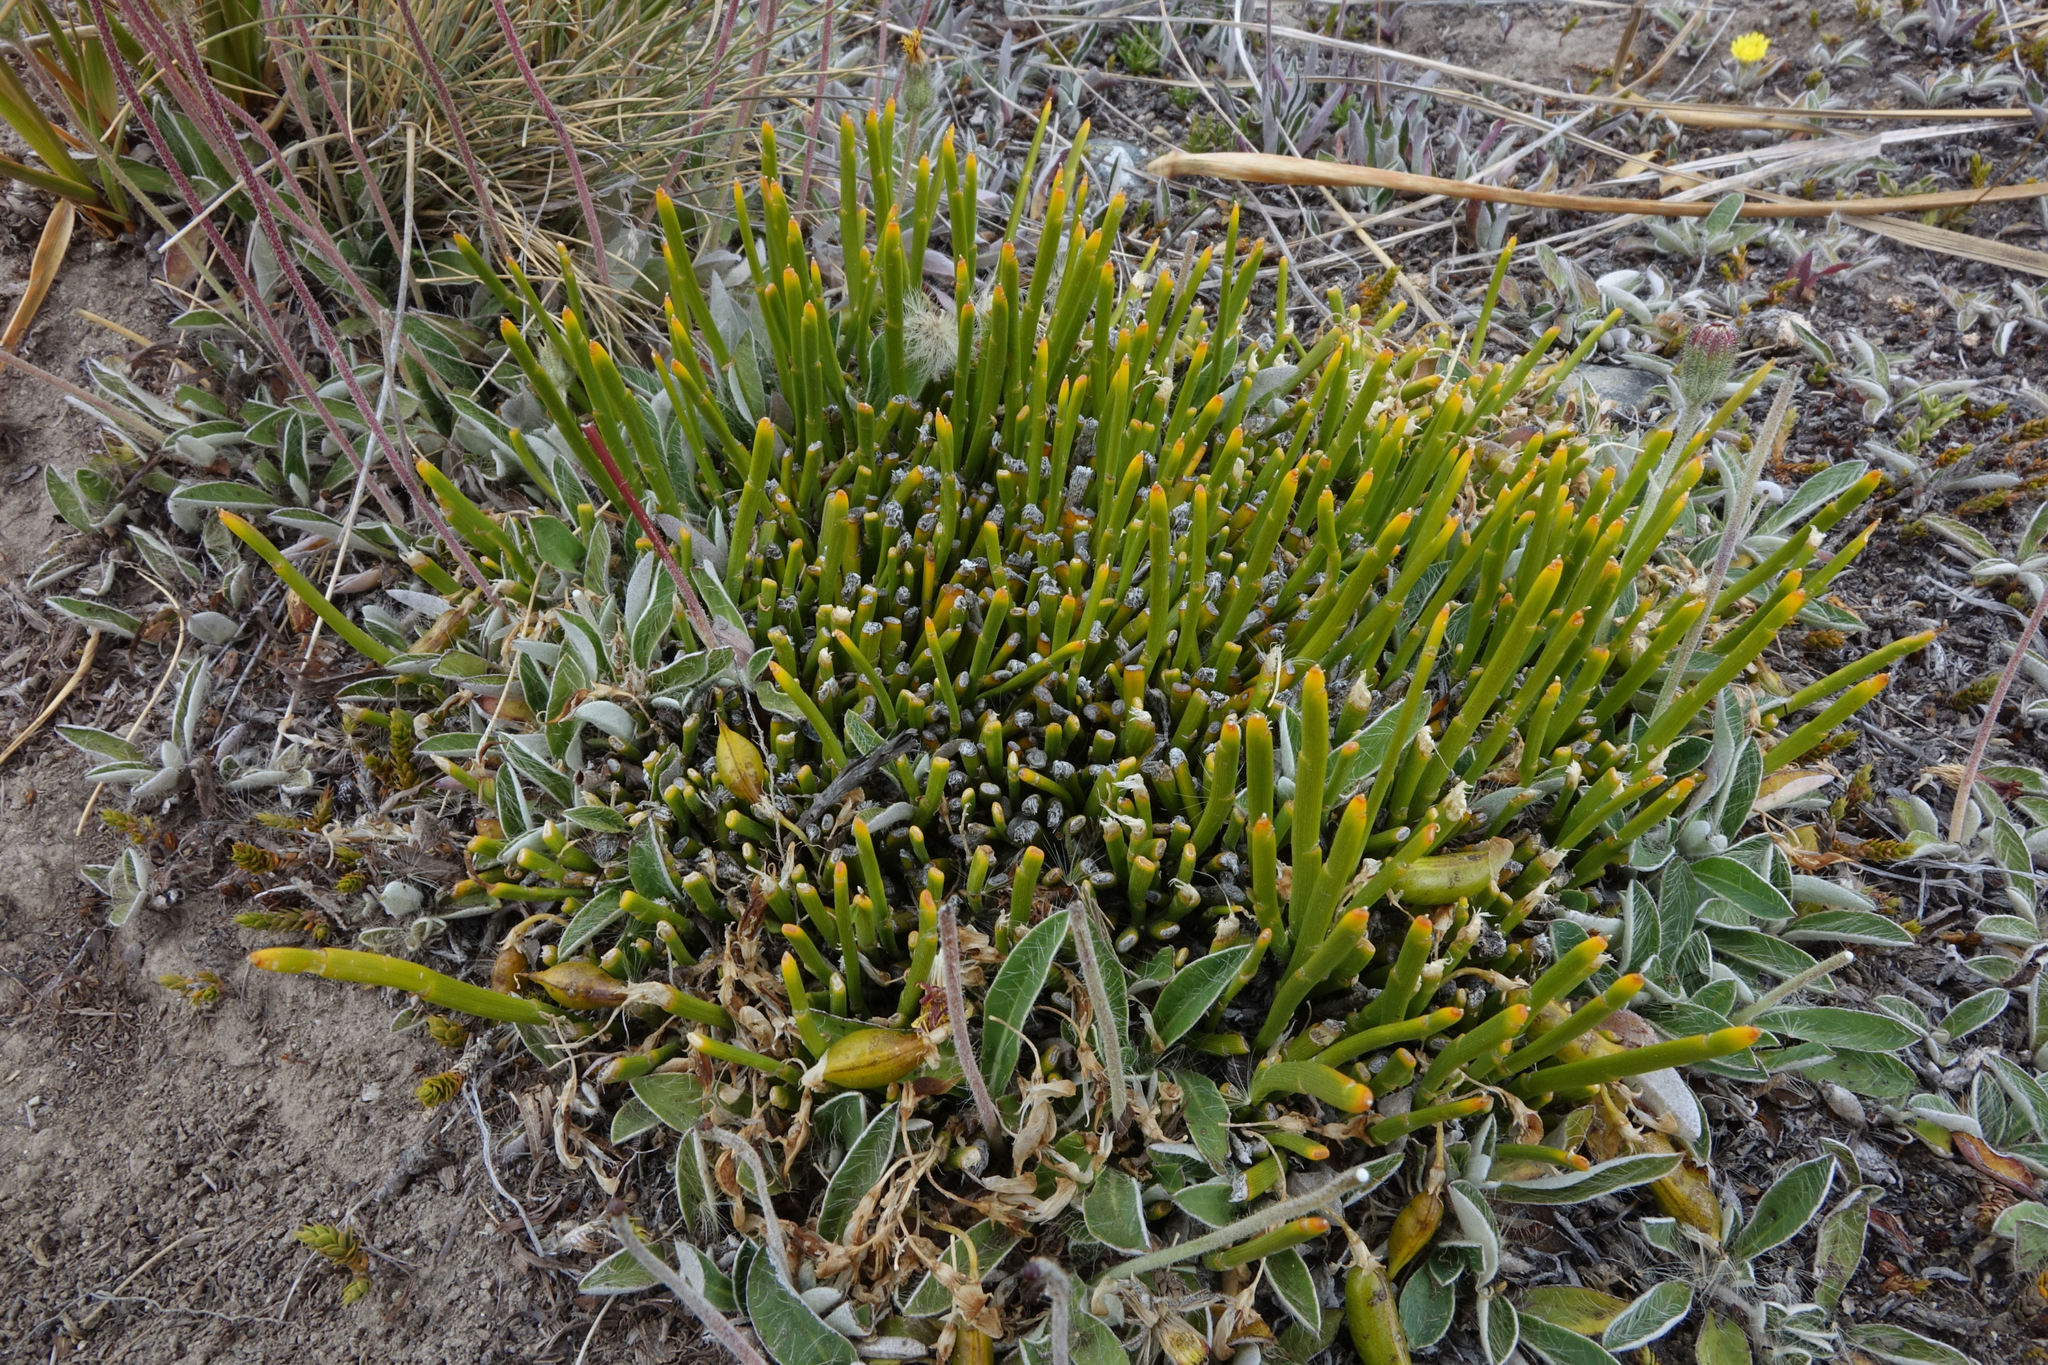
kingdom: Plantae
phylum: Tracheophyta
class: Magnoliopsida
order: Fabales
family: Fabaceae
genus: Carmichaelia
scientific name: Carmichaelia vexillata
